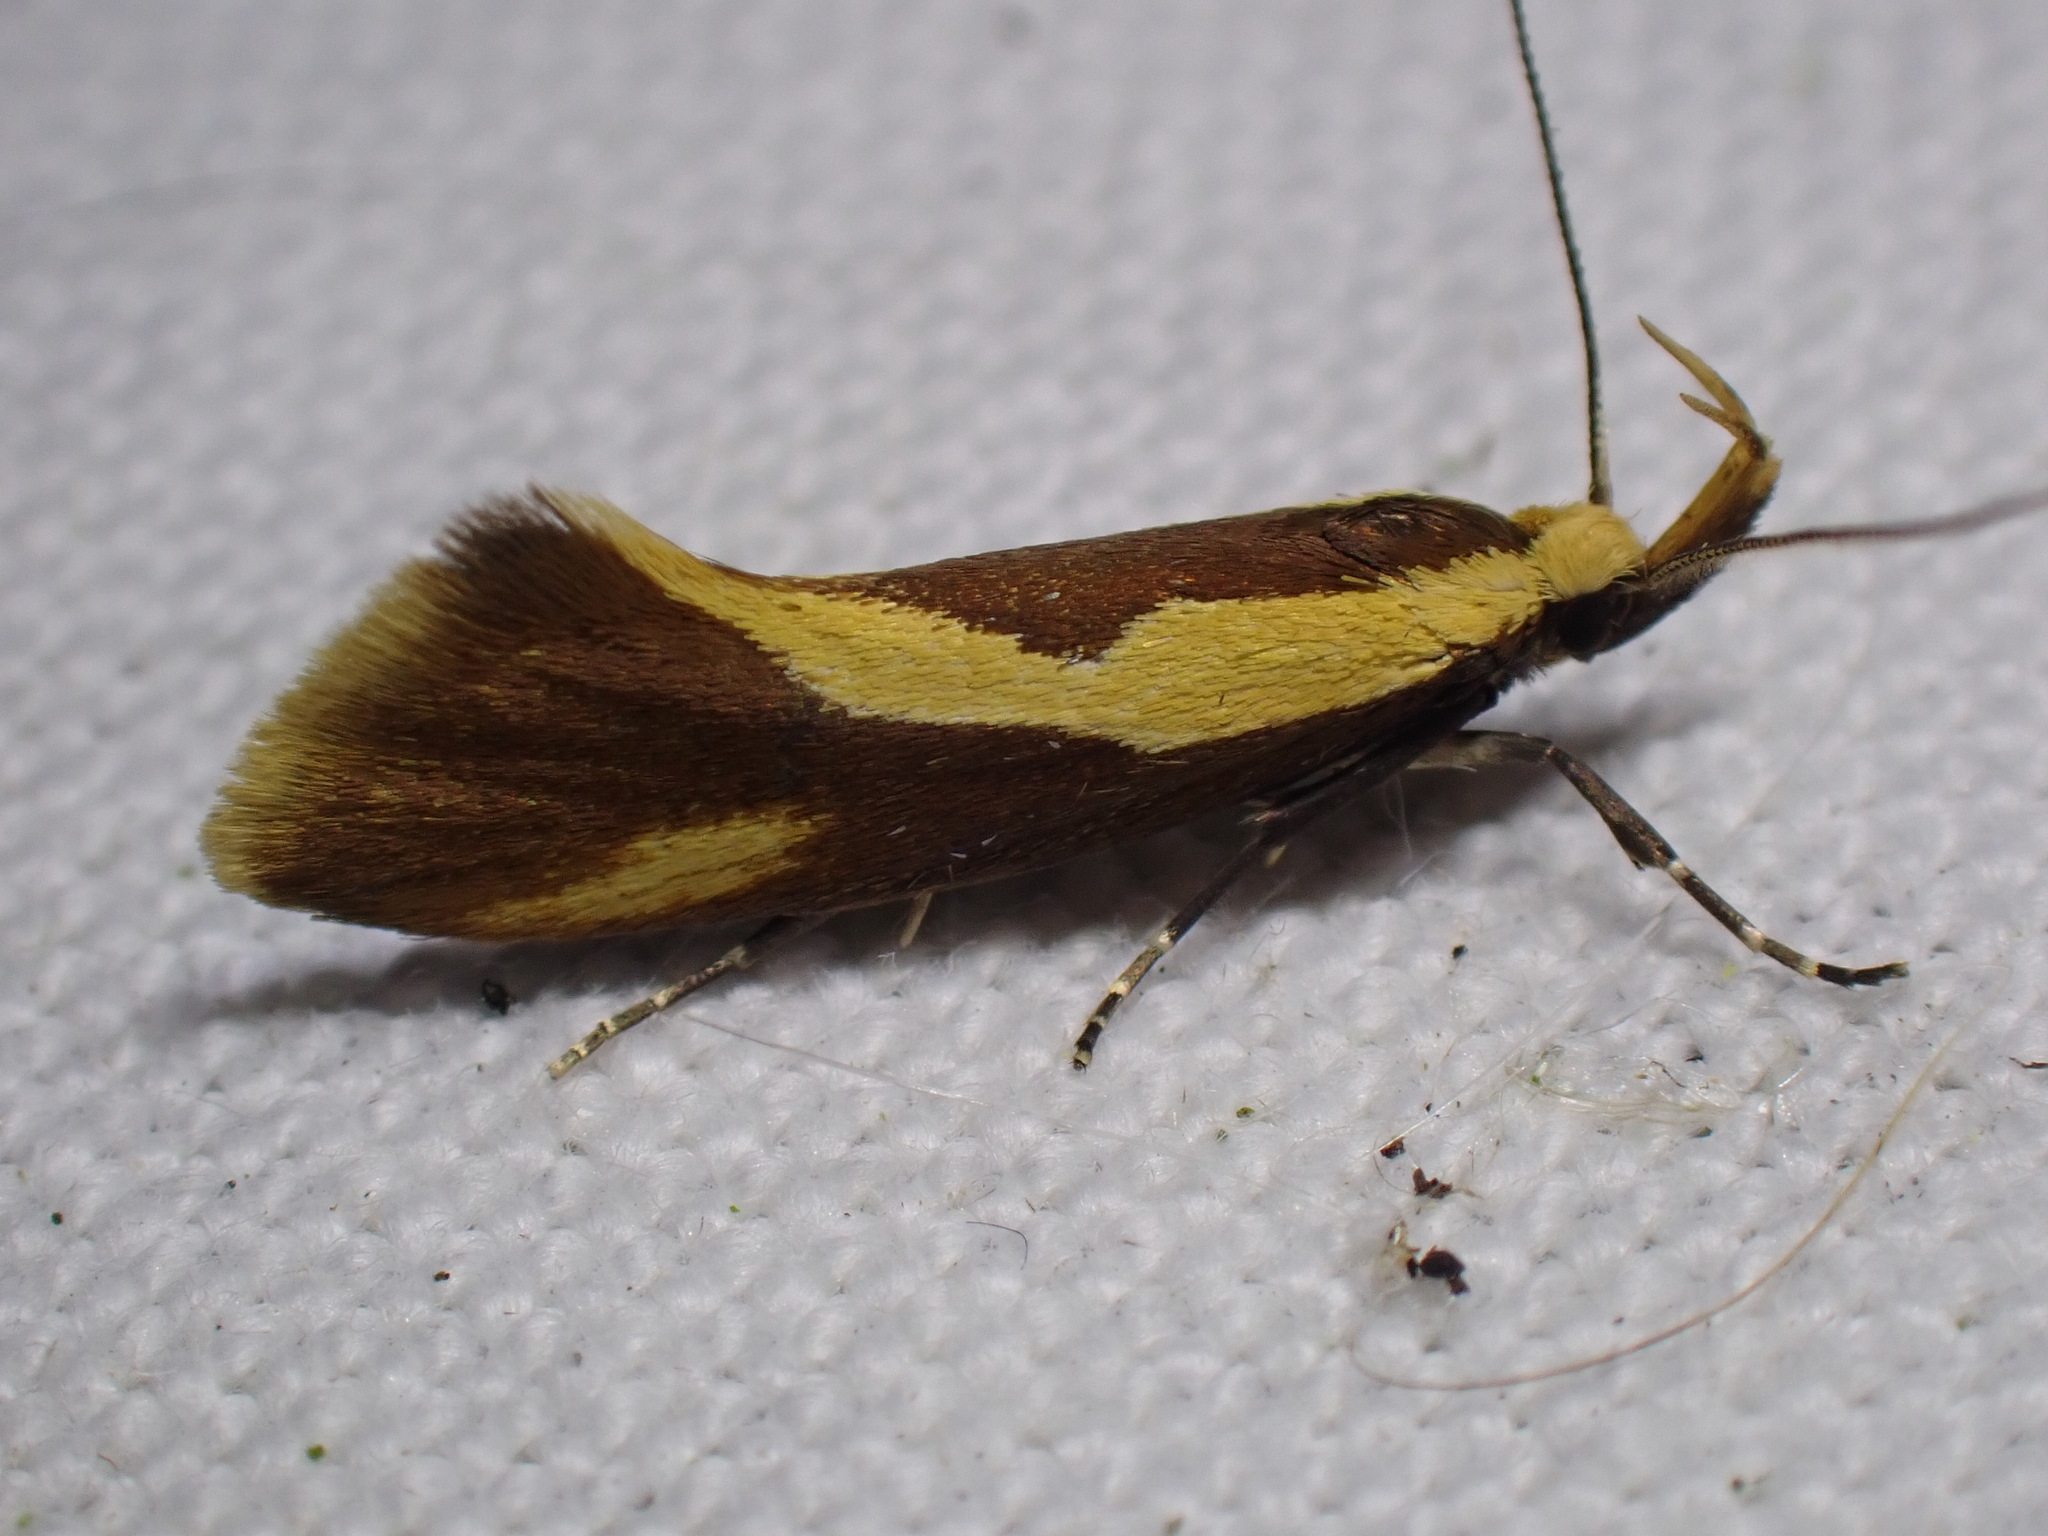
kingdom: Animalia
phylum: Arthropoda
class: Insecta
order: Lepidoptera
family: Oecophoridae
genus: Harpella
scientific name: Harpella forficella
